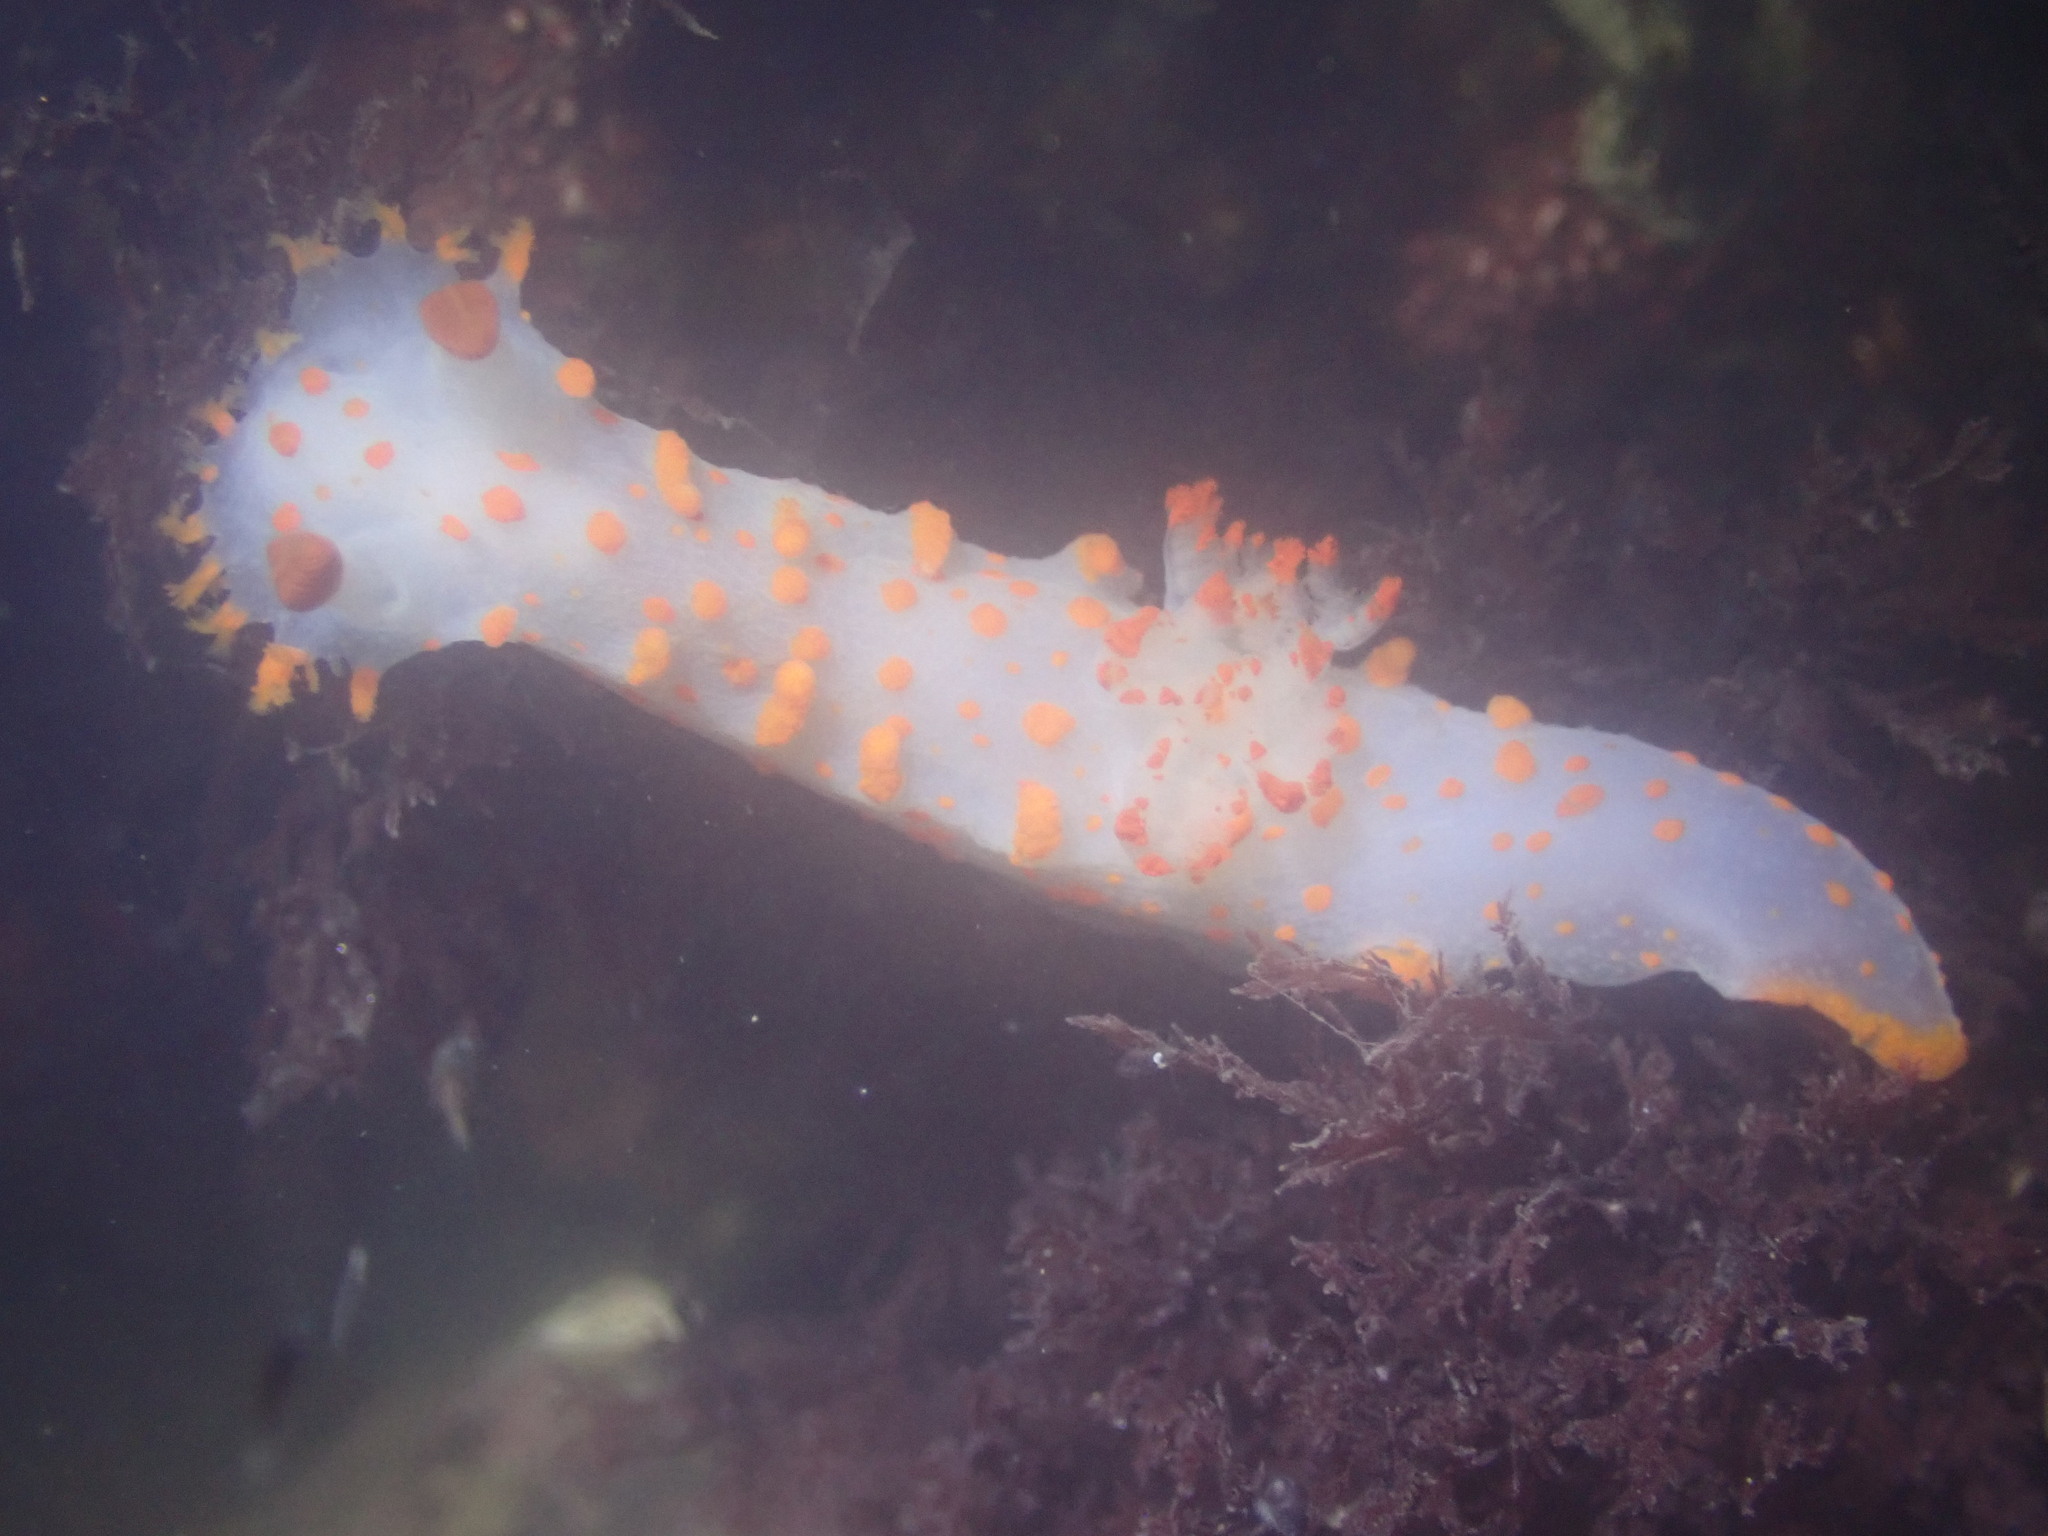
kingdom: Animalia
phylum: Mollusca
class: Gastropoda
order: Nudibranchia
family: Polyceridae
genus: Triopha
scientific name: Triopha catalinae
